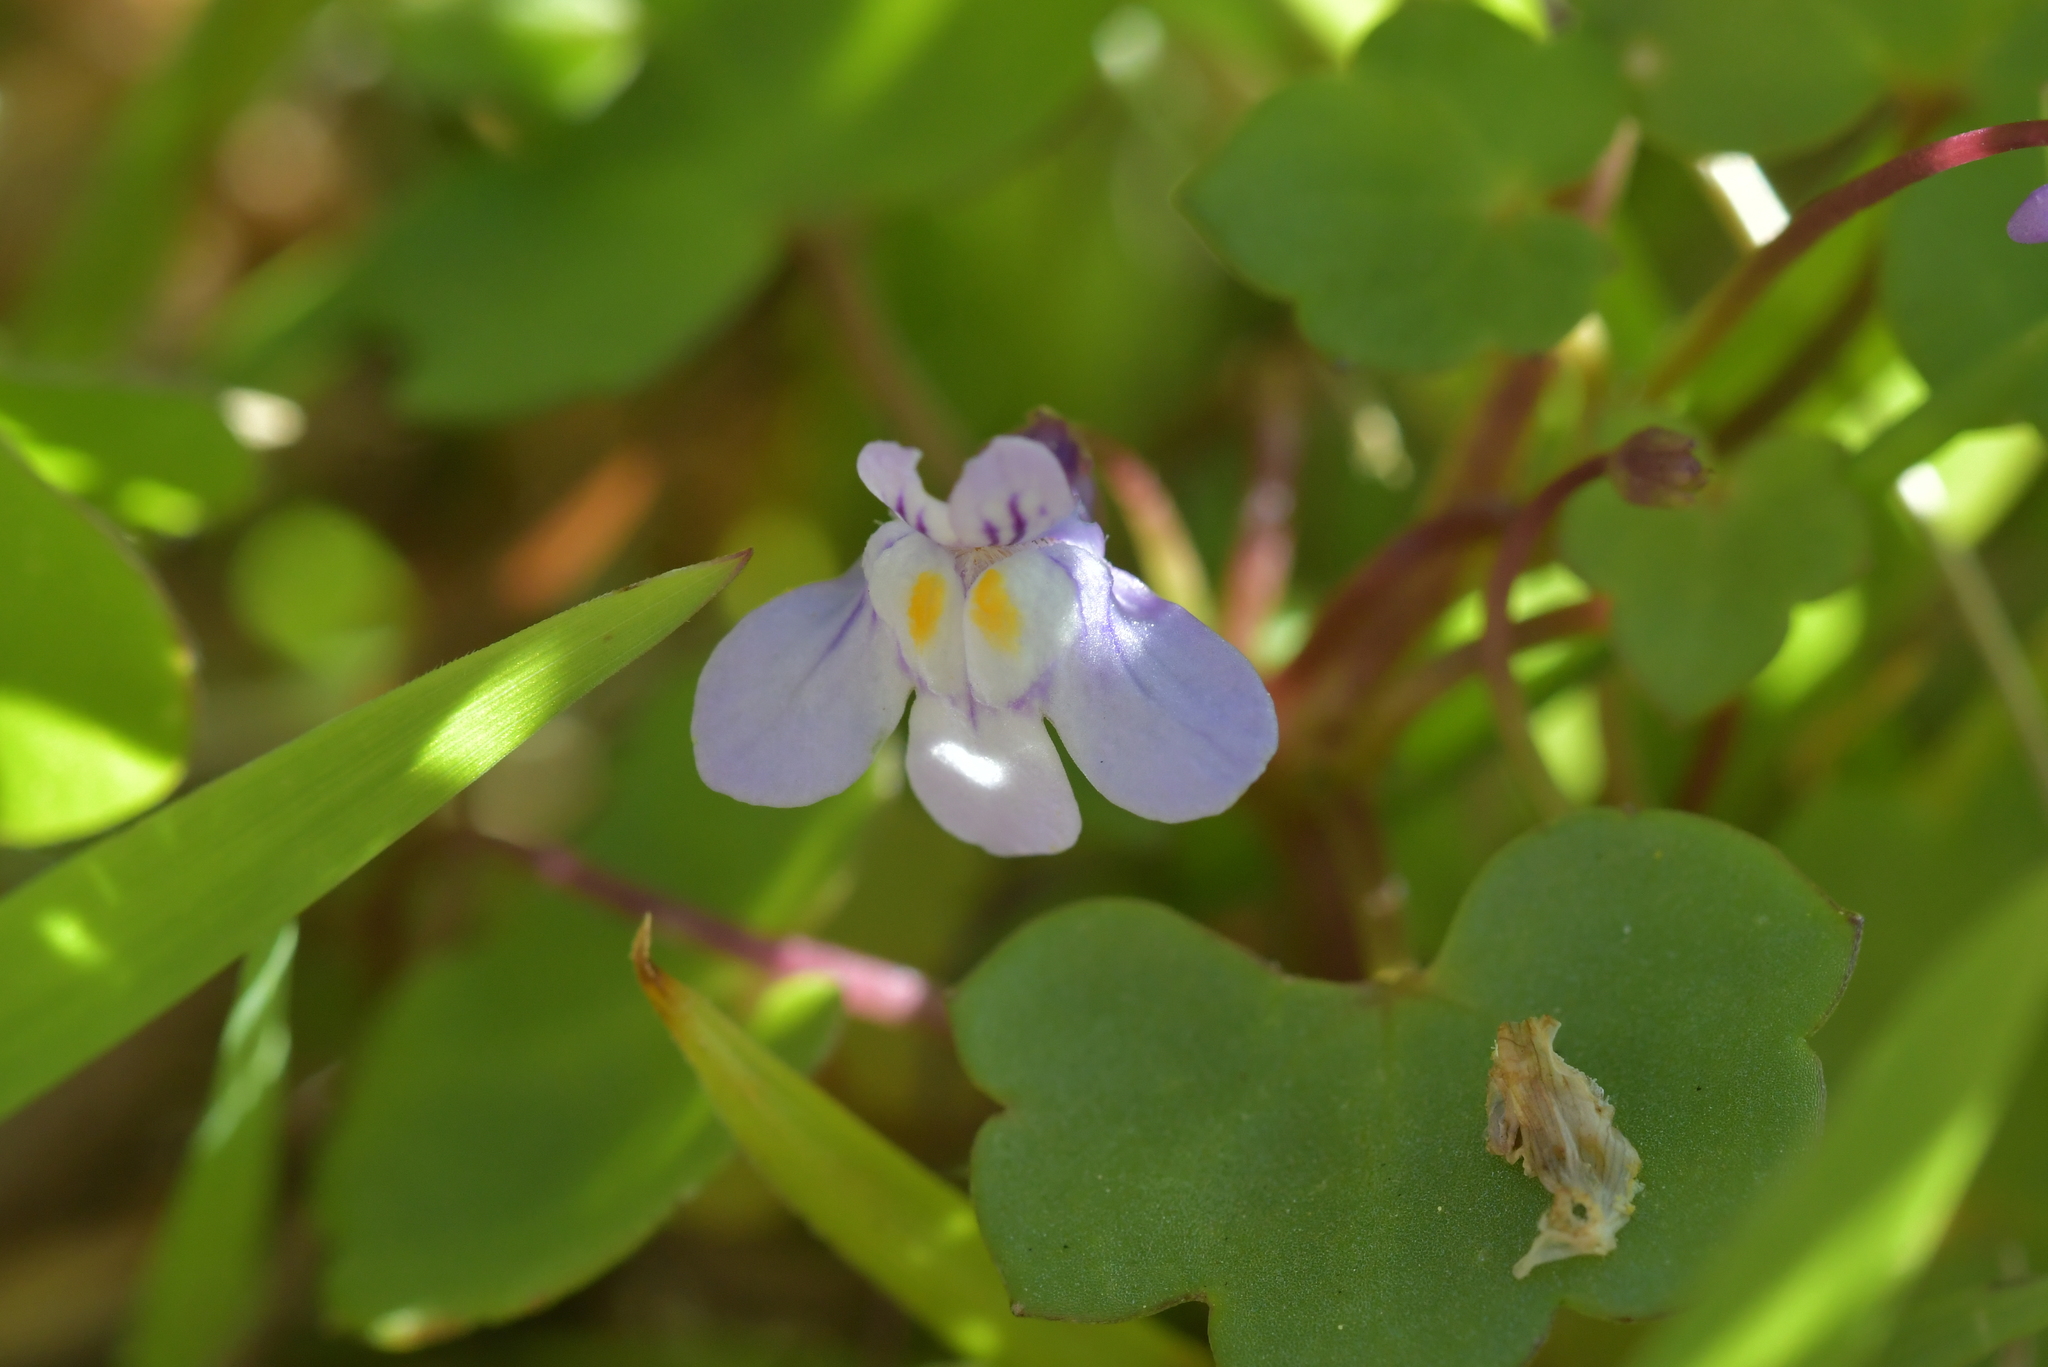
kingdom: Plantae
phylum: Tracheophyta
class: Magnoliopsida
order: Lamiales
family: Plantaginaceae
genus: Cymbalaria
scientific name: Cymbalaria muralis
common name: Ivy-leaved toadflax
